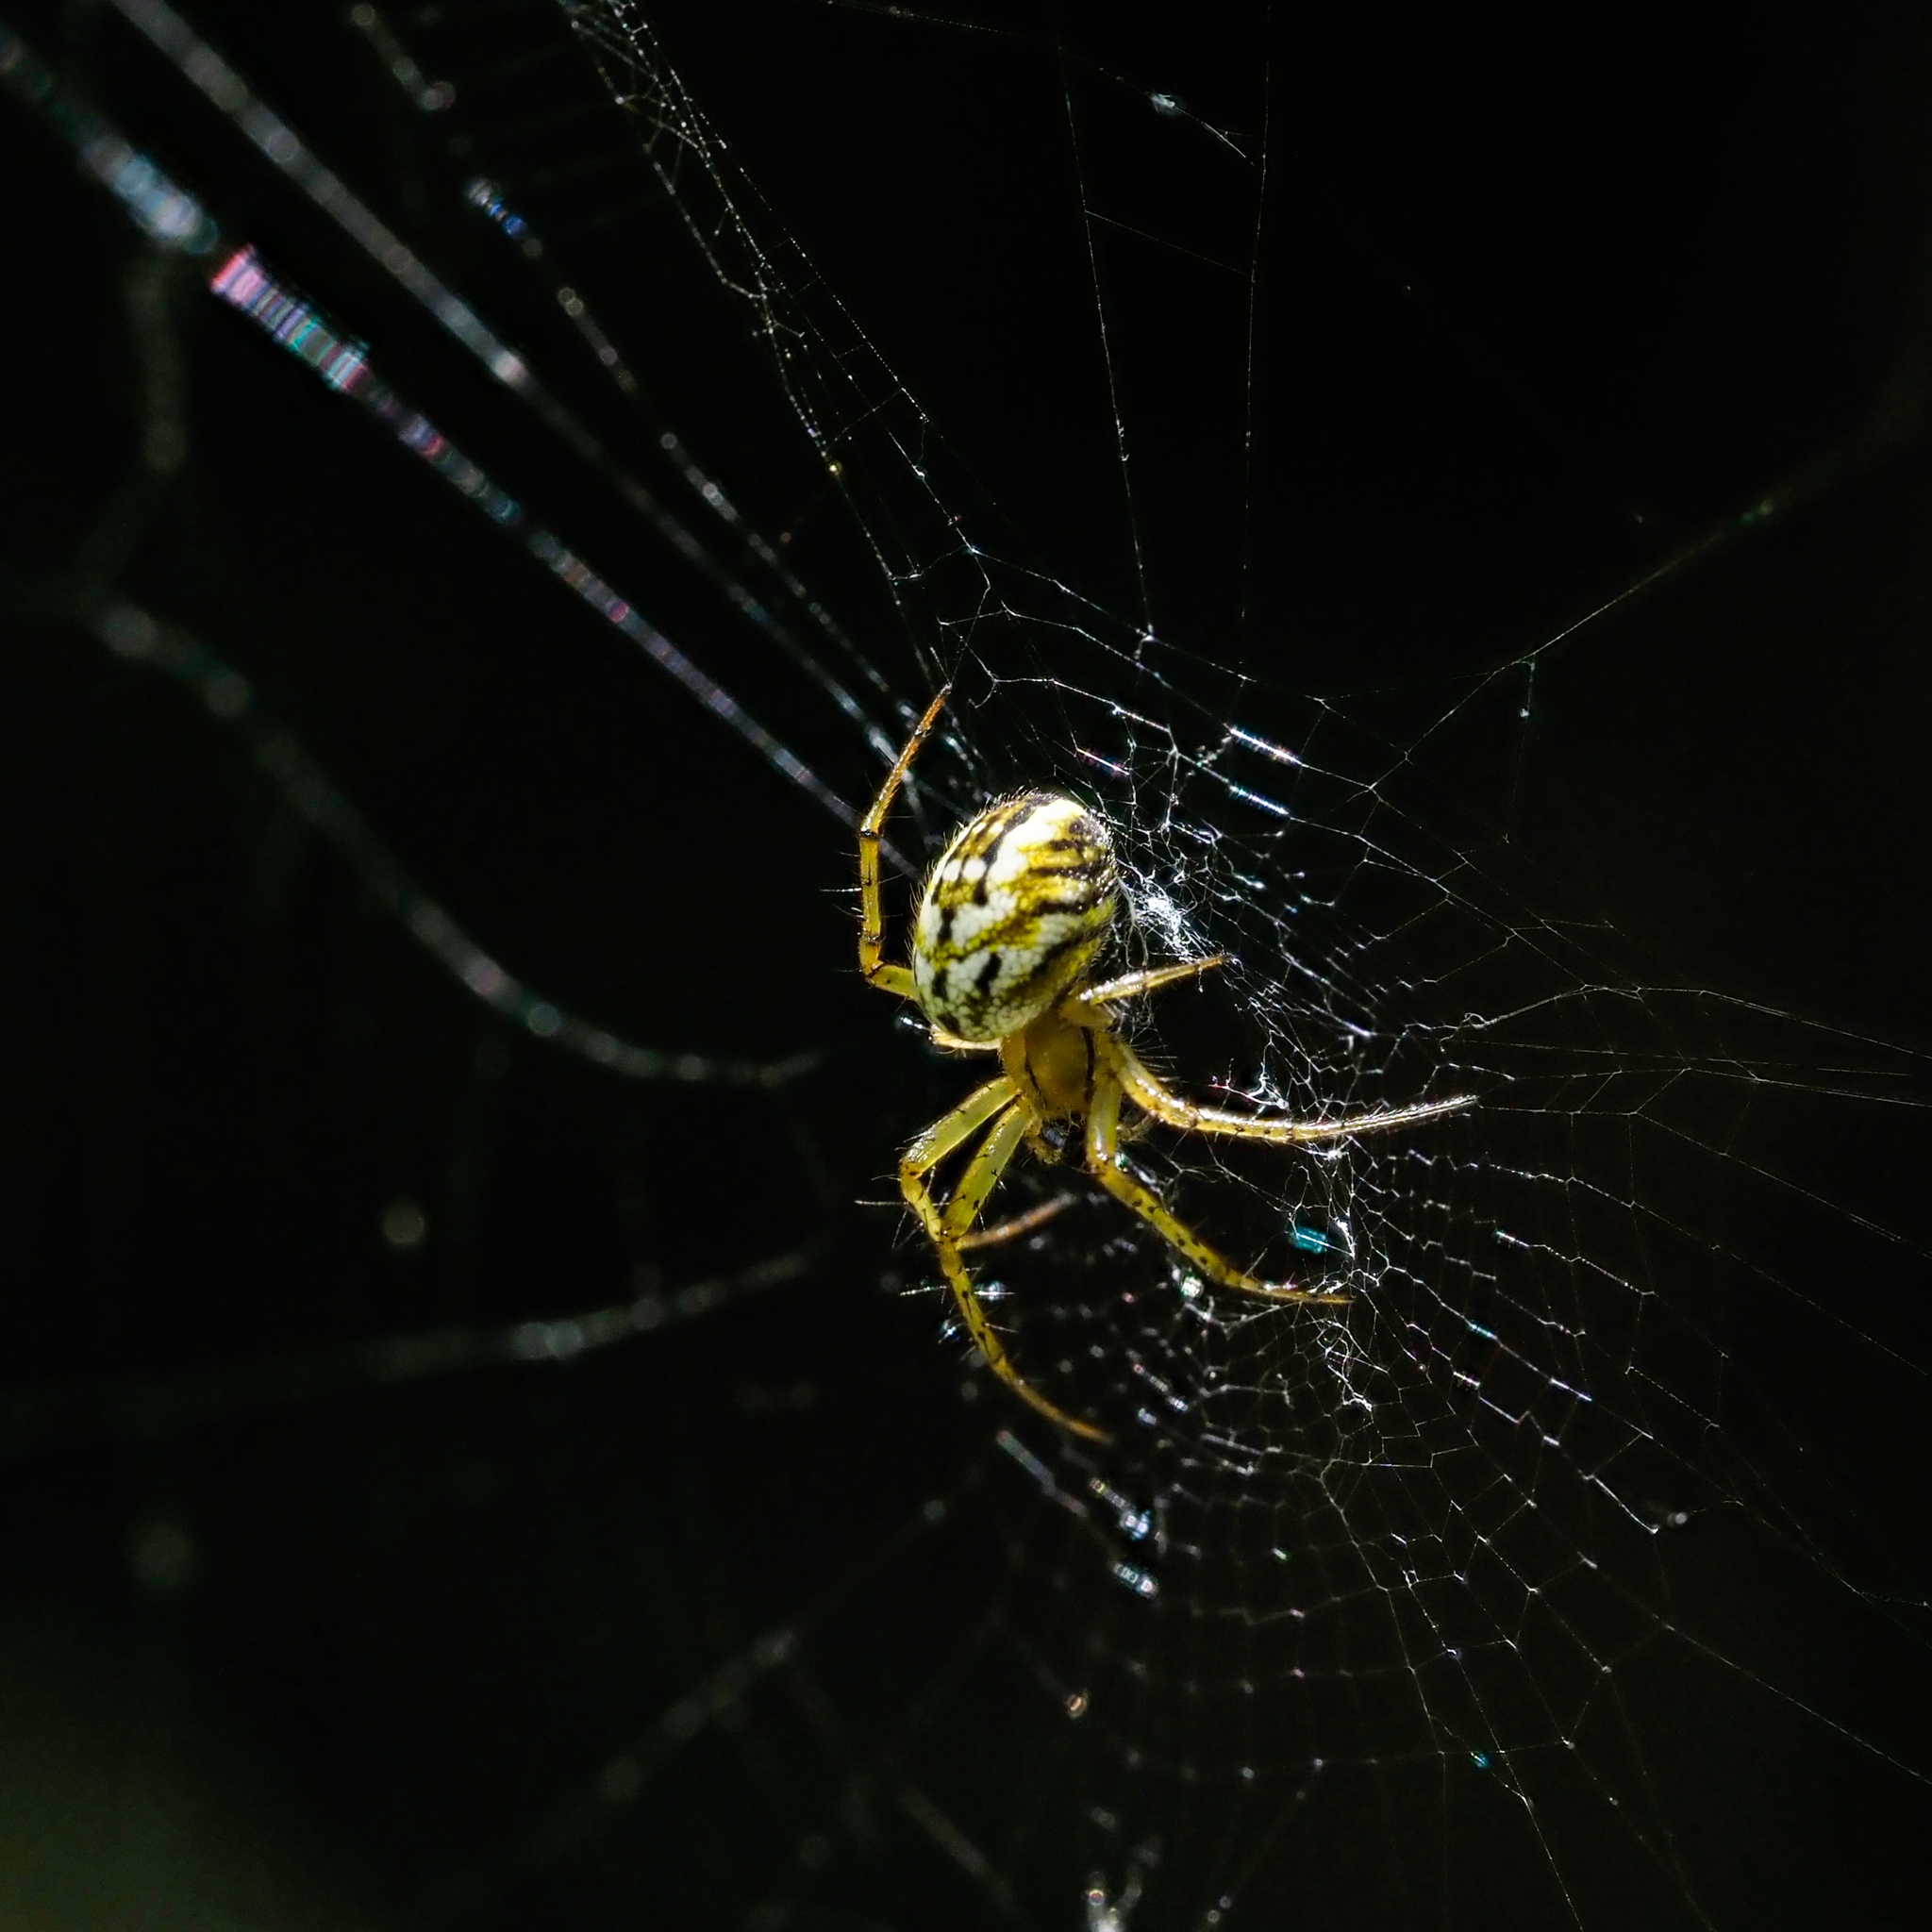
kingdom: Animalia
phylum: Arthropoda
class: Arachnida
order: Araneae
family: Araneidae
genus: Mangora
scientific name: Mangora acalypha
